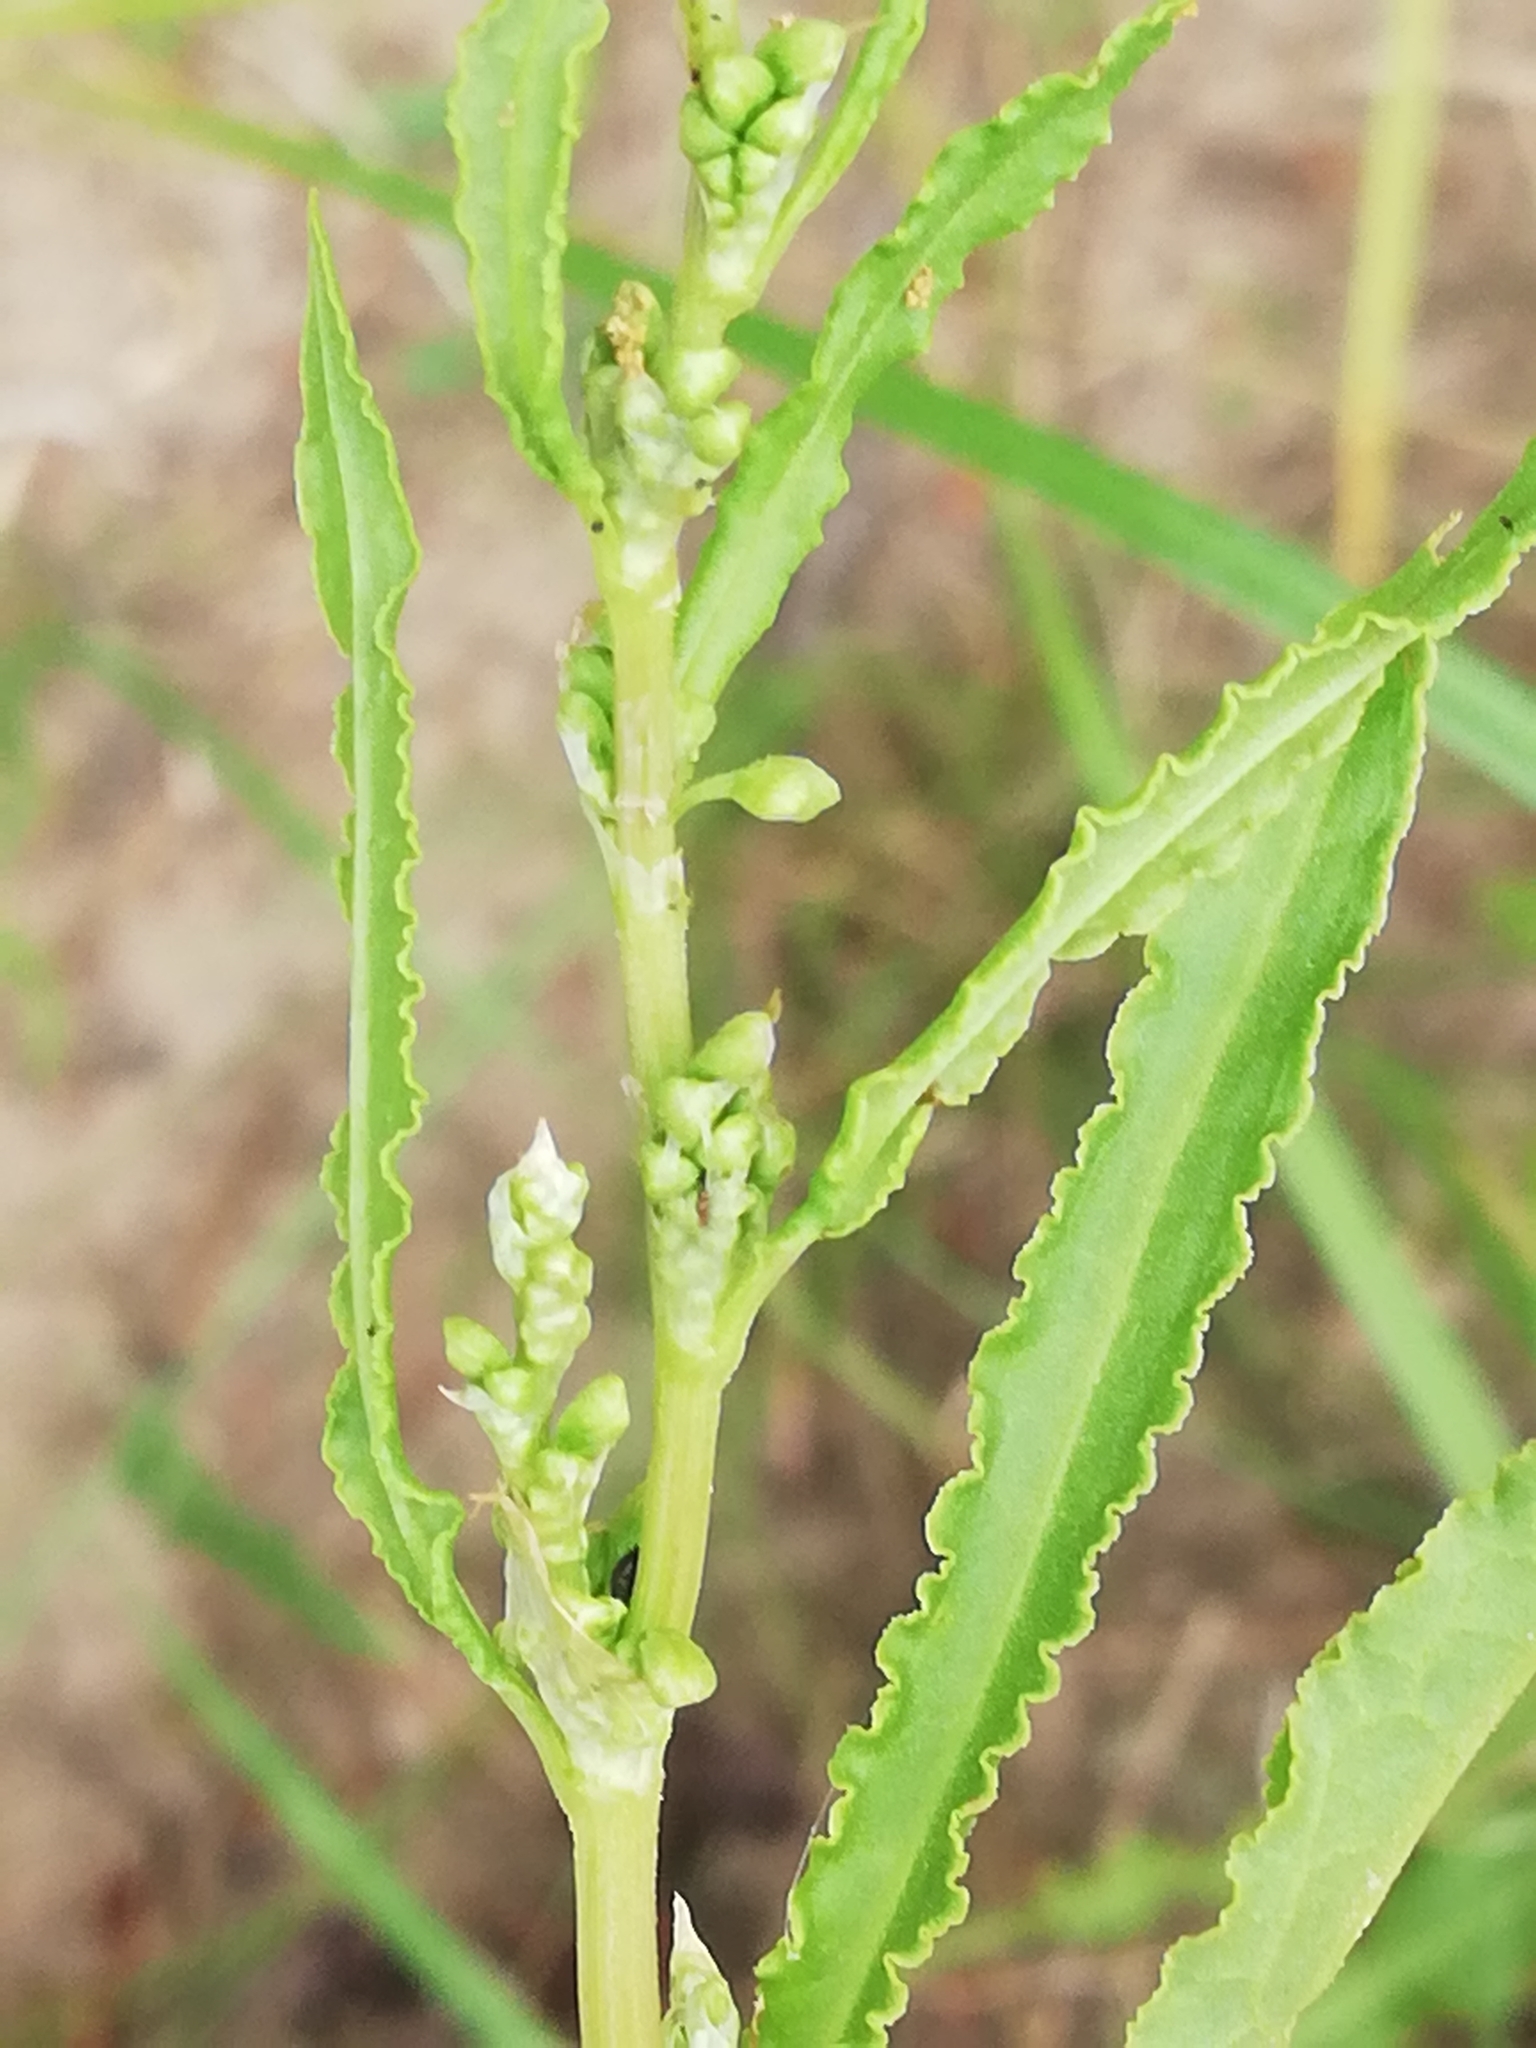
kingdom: Plantae
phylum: Tracheophyta
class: Magnoliopsida
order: Caryophyllales
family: Polygonaceae
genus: Rumex
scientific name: Rumex crispus
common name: Curled dock
